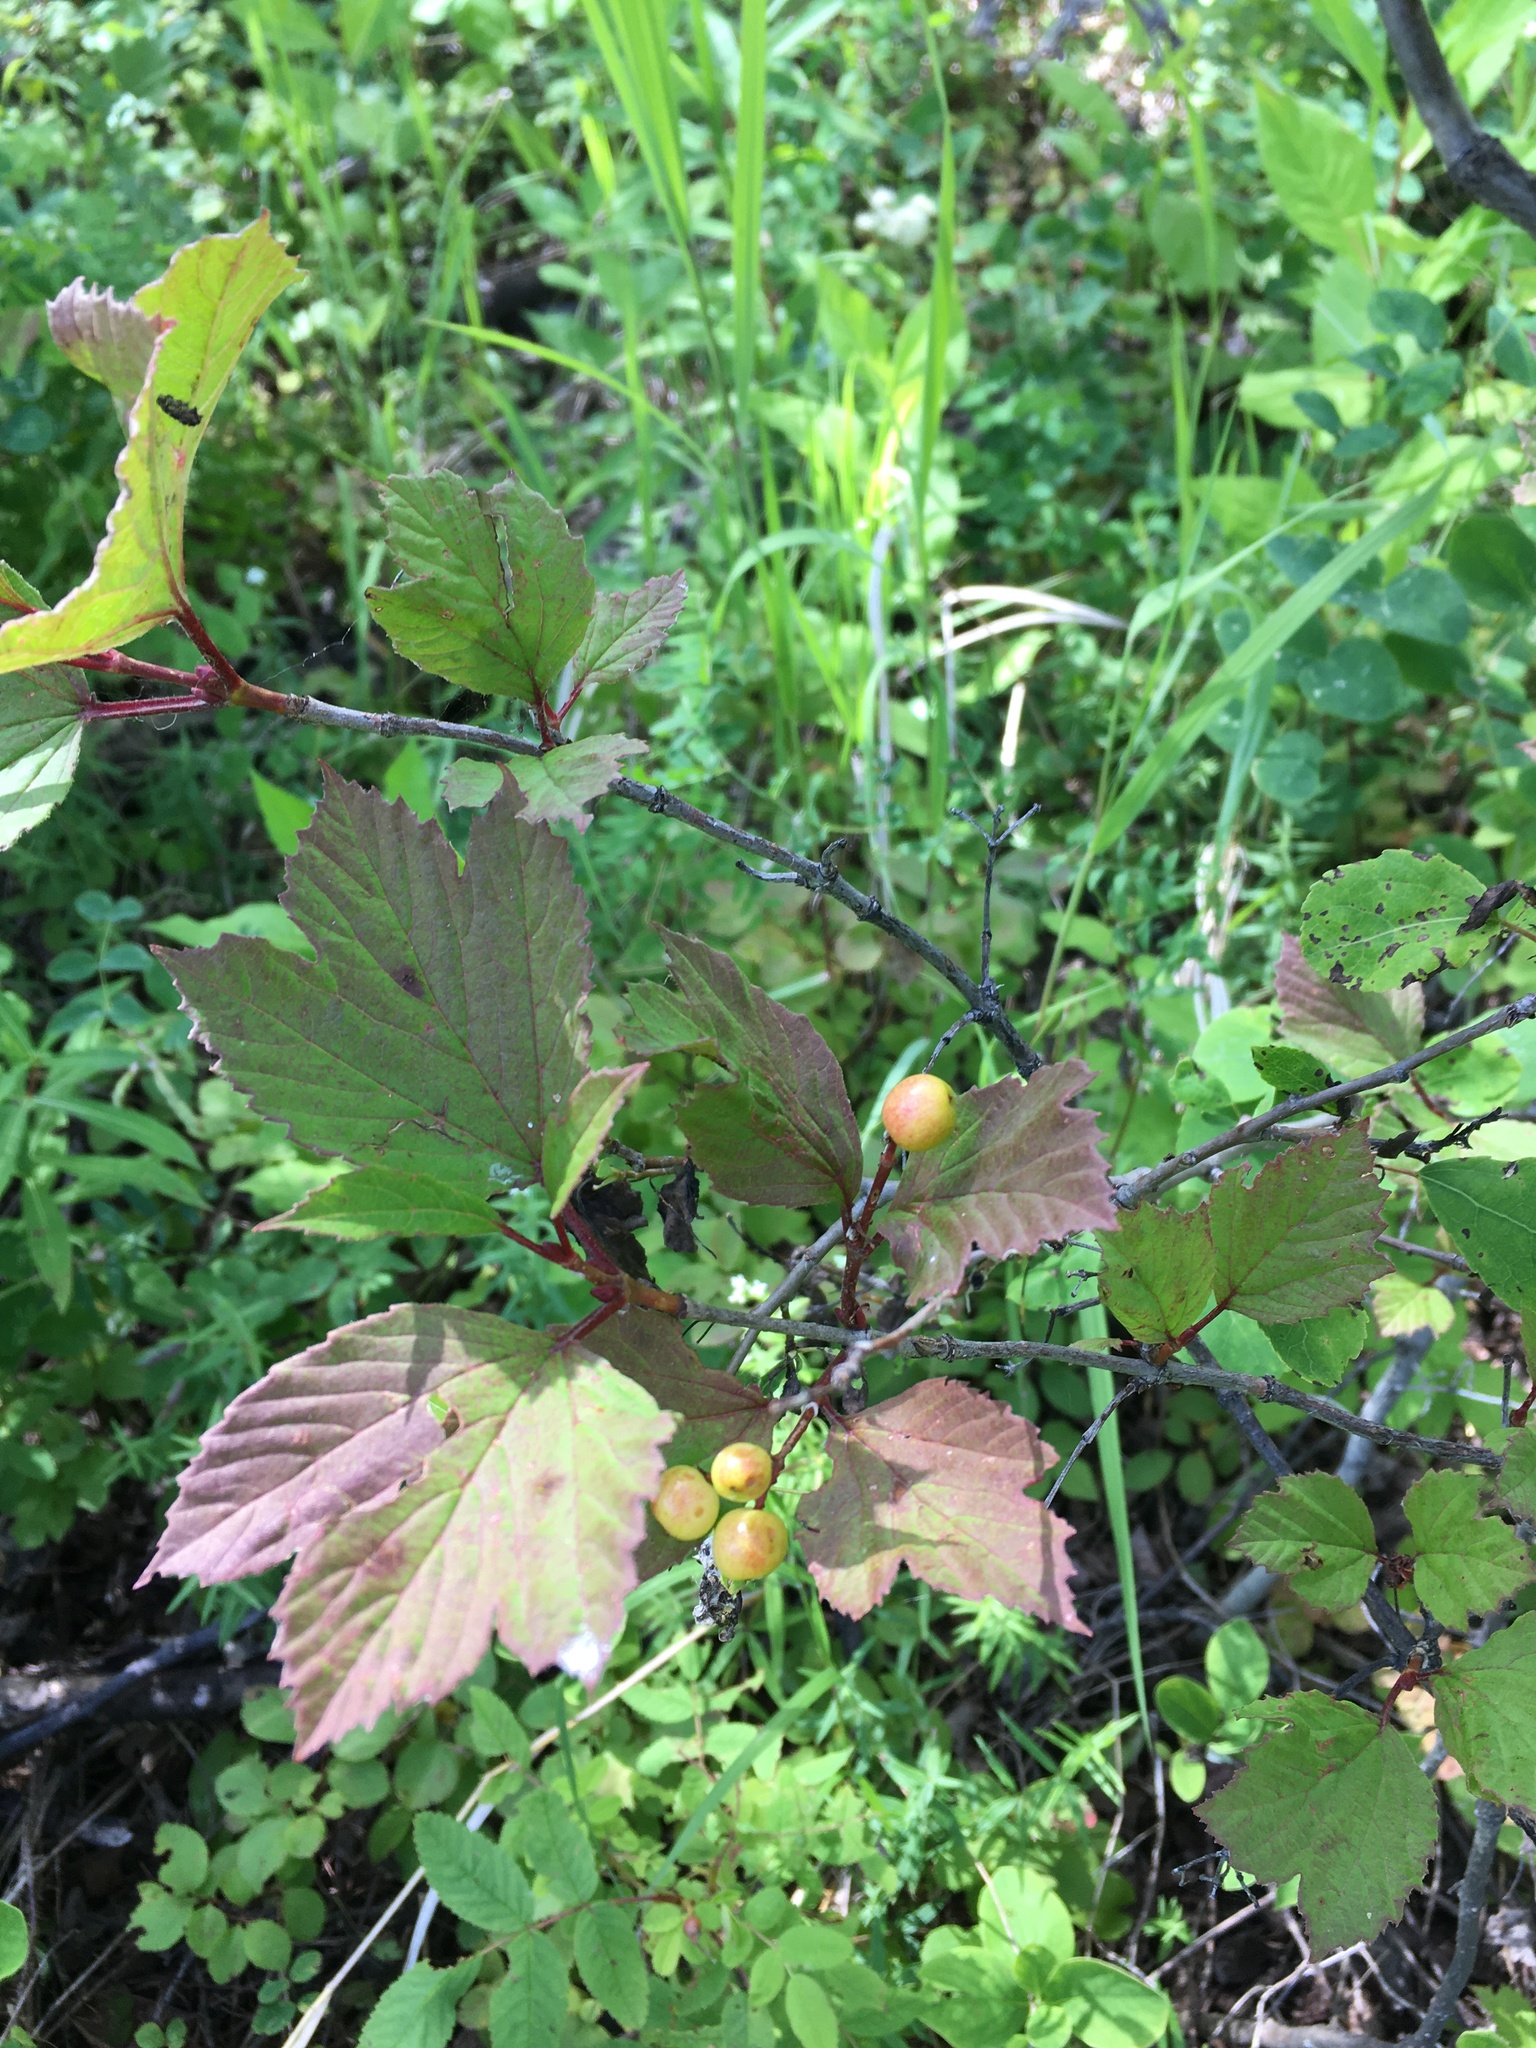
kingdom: Plantae
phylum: Tracheophyta
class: Magnoliopsida
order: Dipsacales
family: Viburnaceae
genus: Viburnum
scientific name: Viburnum edule
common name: Mooseberry
